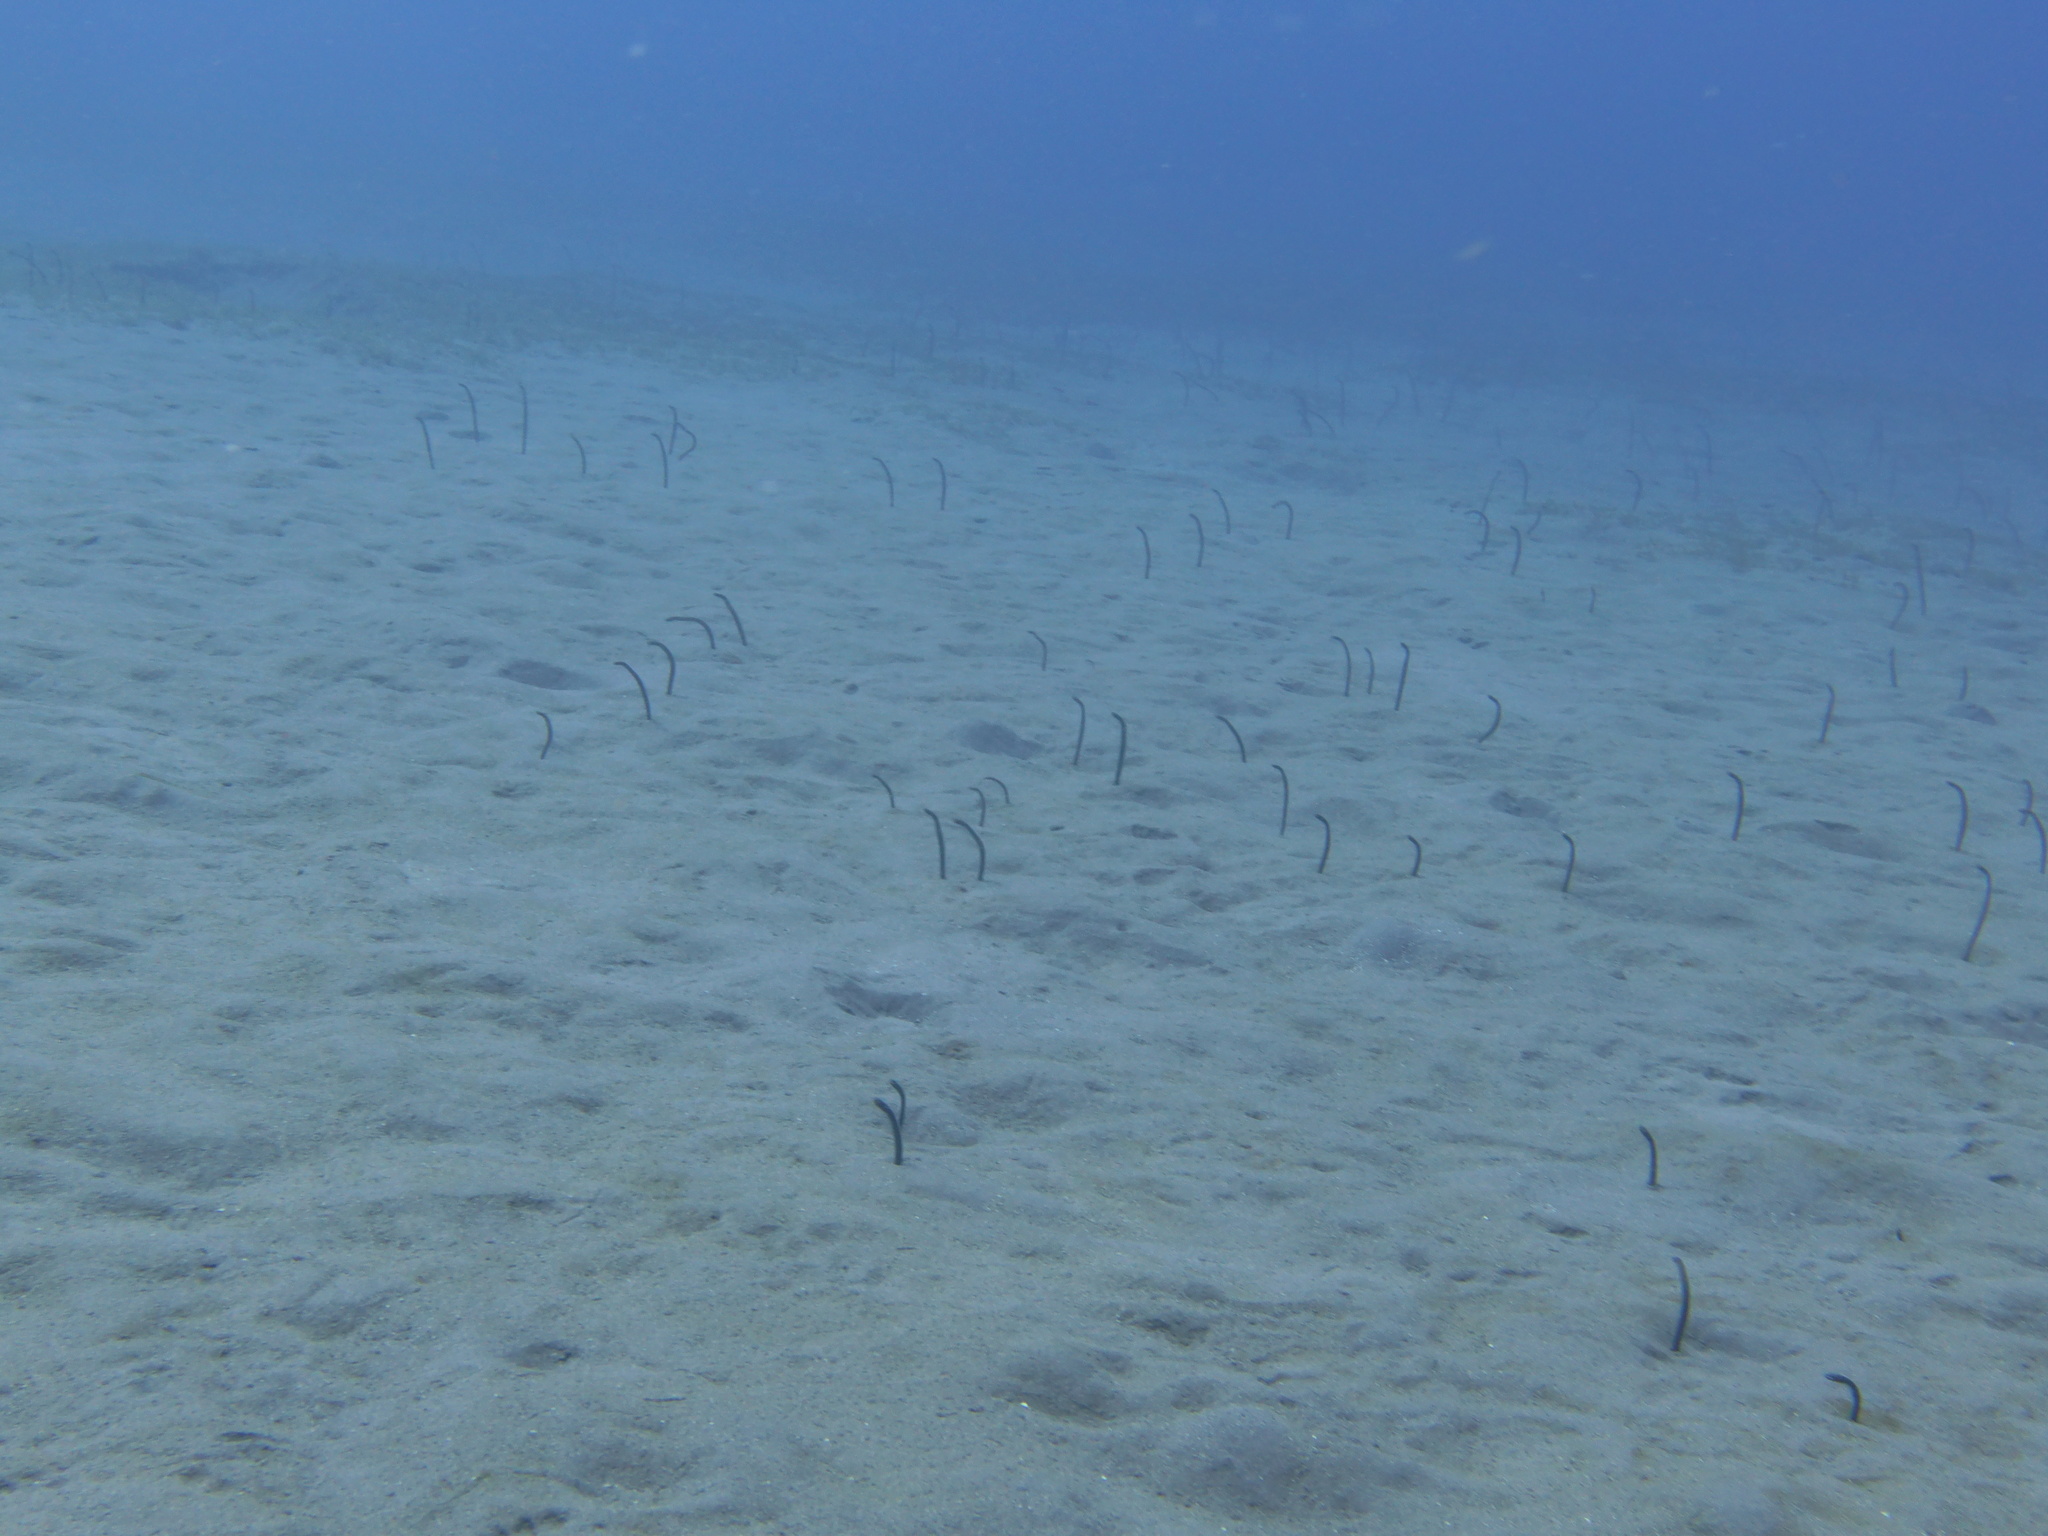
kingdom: Animalia
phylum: Chordata
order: Anguilliformes
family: Congridae
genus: Heteroconger
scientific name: Heteroconger longissimus
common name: Garden eel
